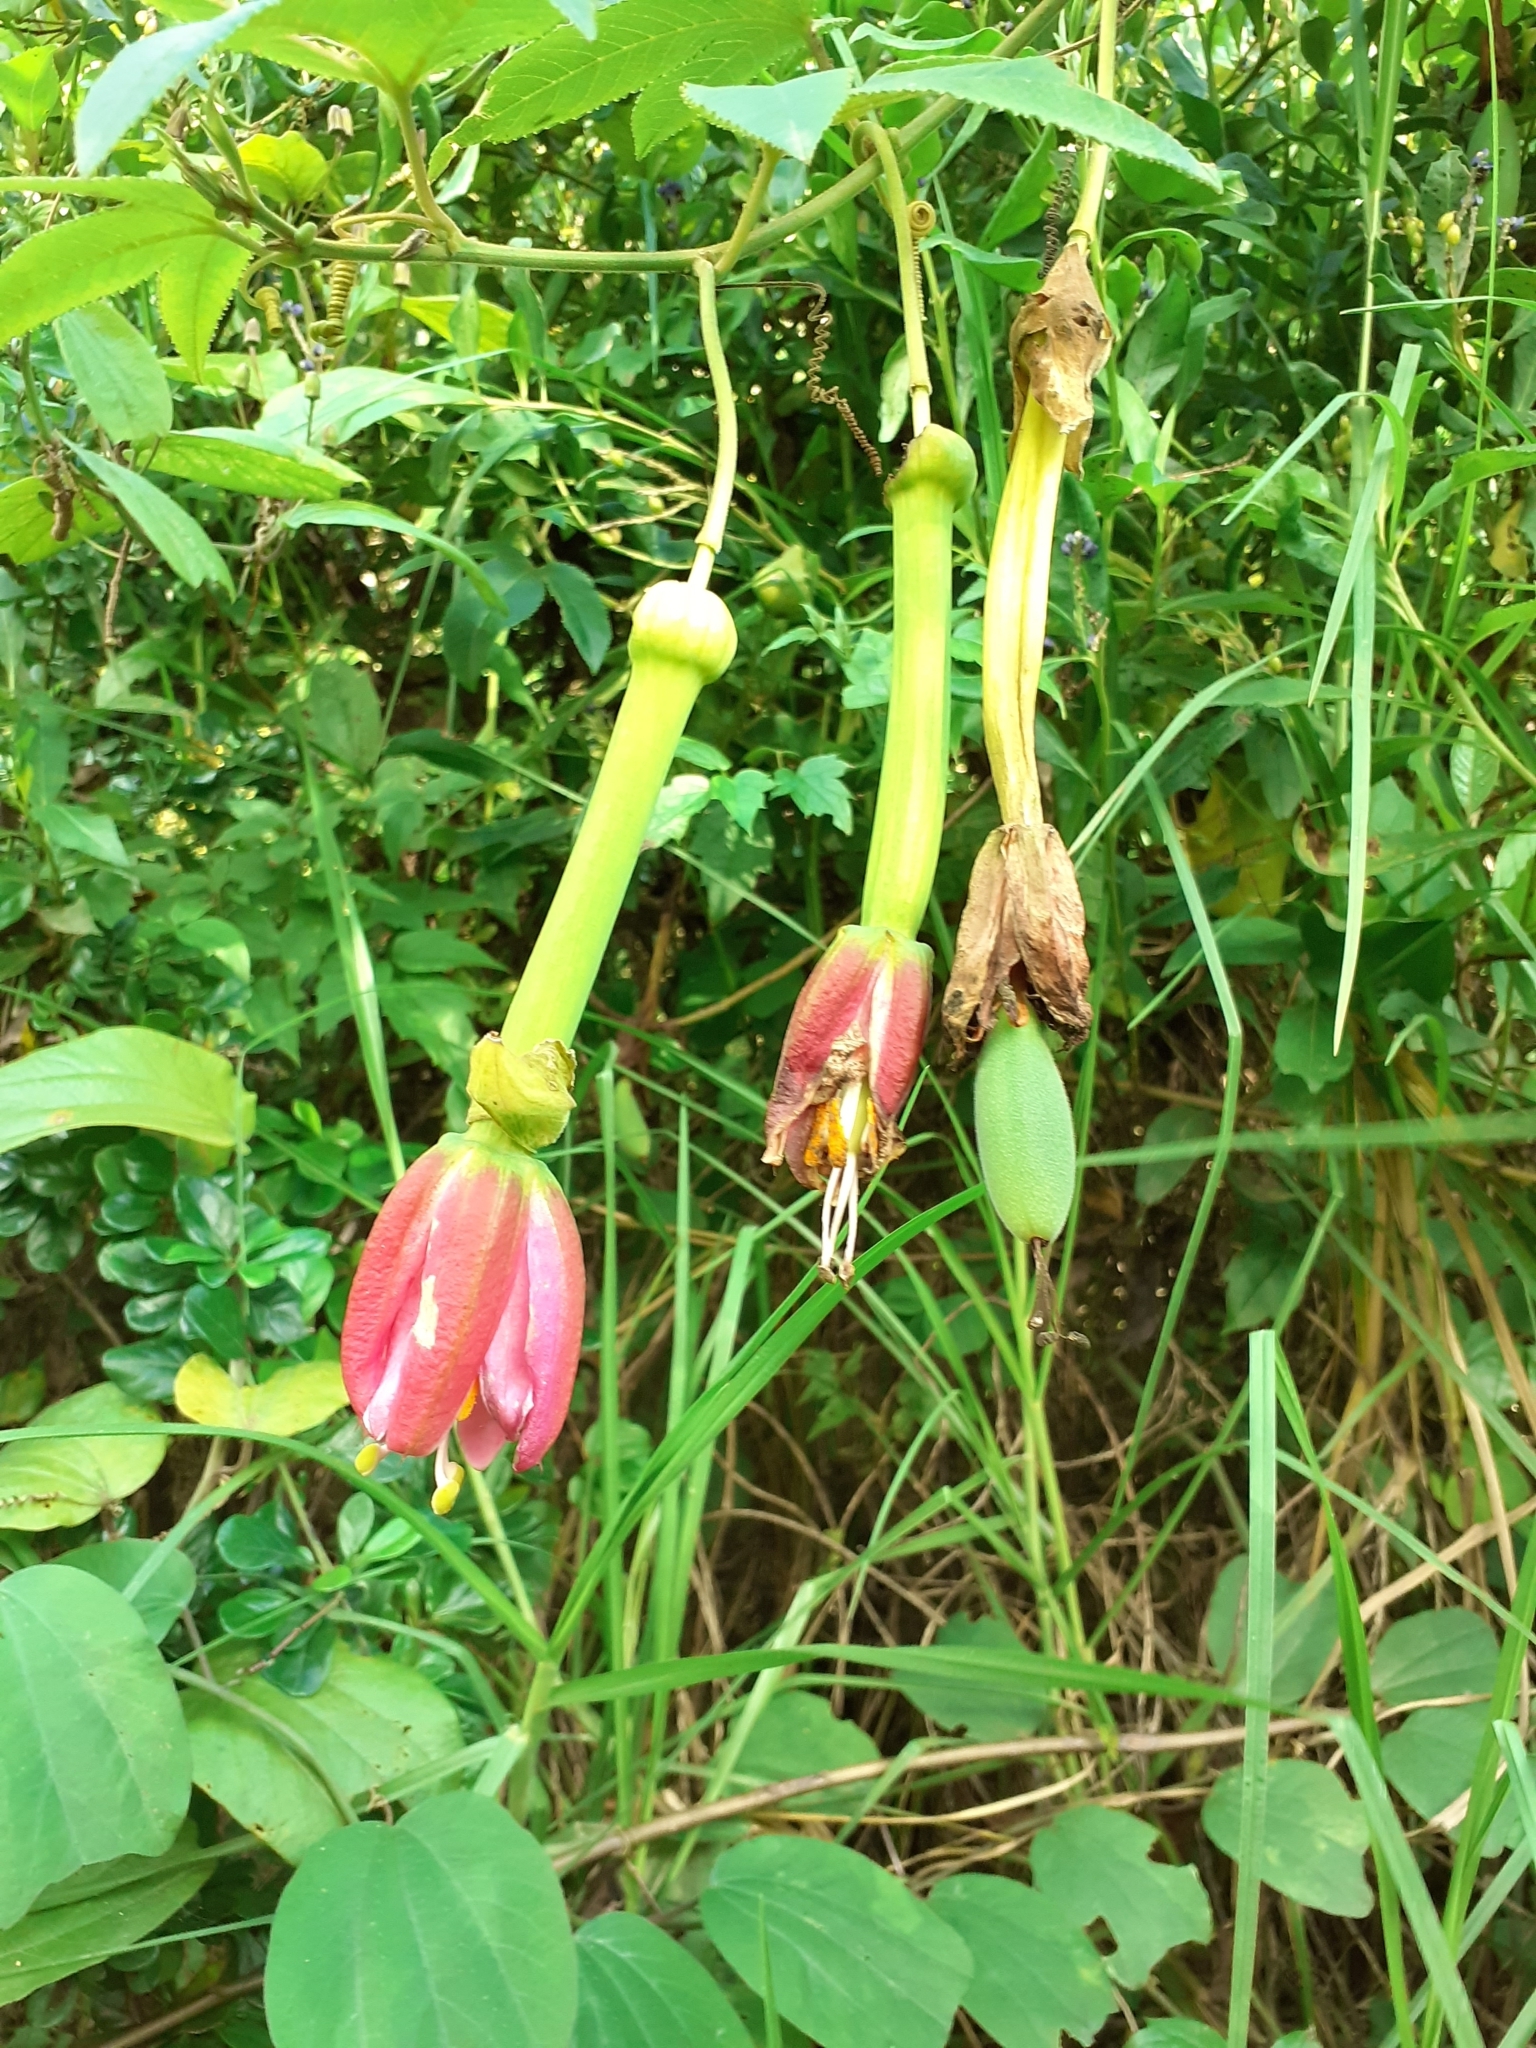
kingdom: Plantae
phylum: Tracheophyta
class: Magnoliopsida
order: Malpighiales
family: Passifloraceae
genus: Passiflora
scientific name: Passiflora tarminiana
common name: Banana poka
